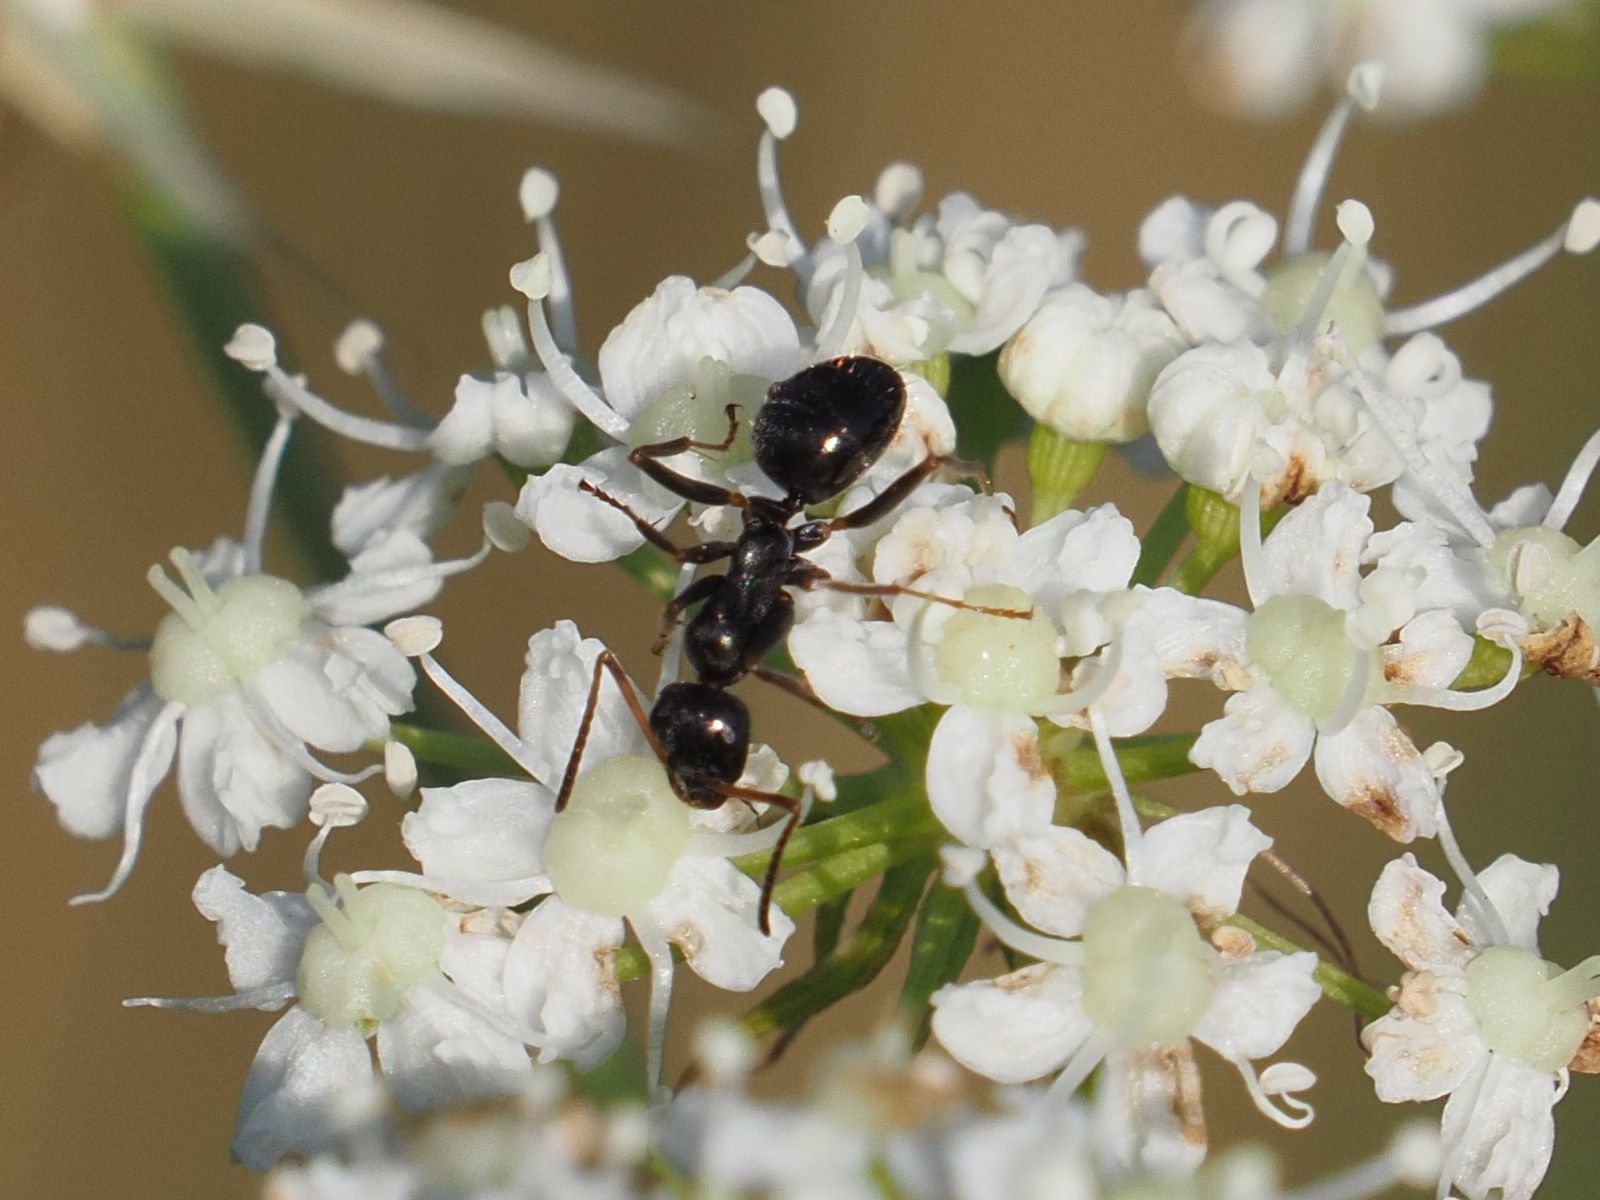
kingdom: Animalia
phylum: Arthropoda
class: Insecta
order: Hymenoptera
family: Formicidae
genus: Formica
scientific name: Formica gagates
